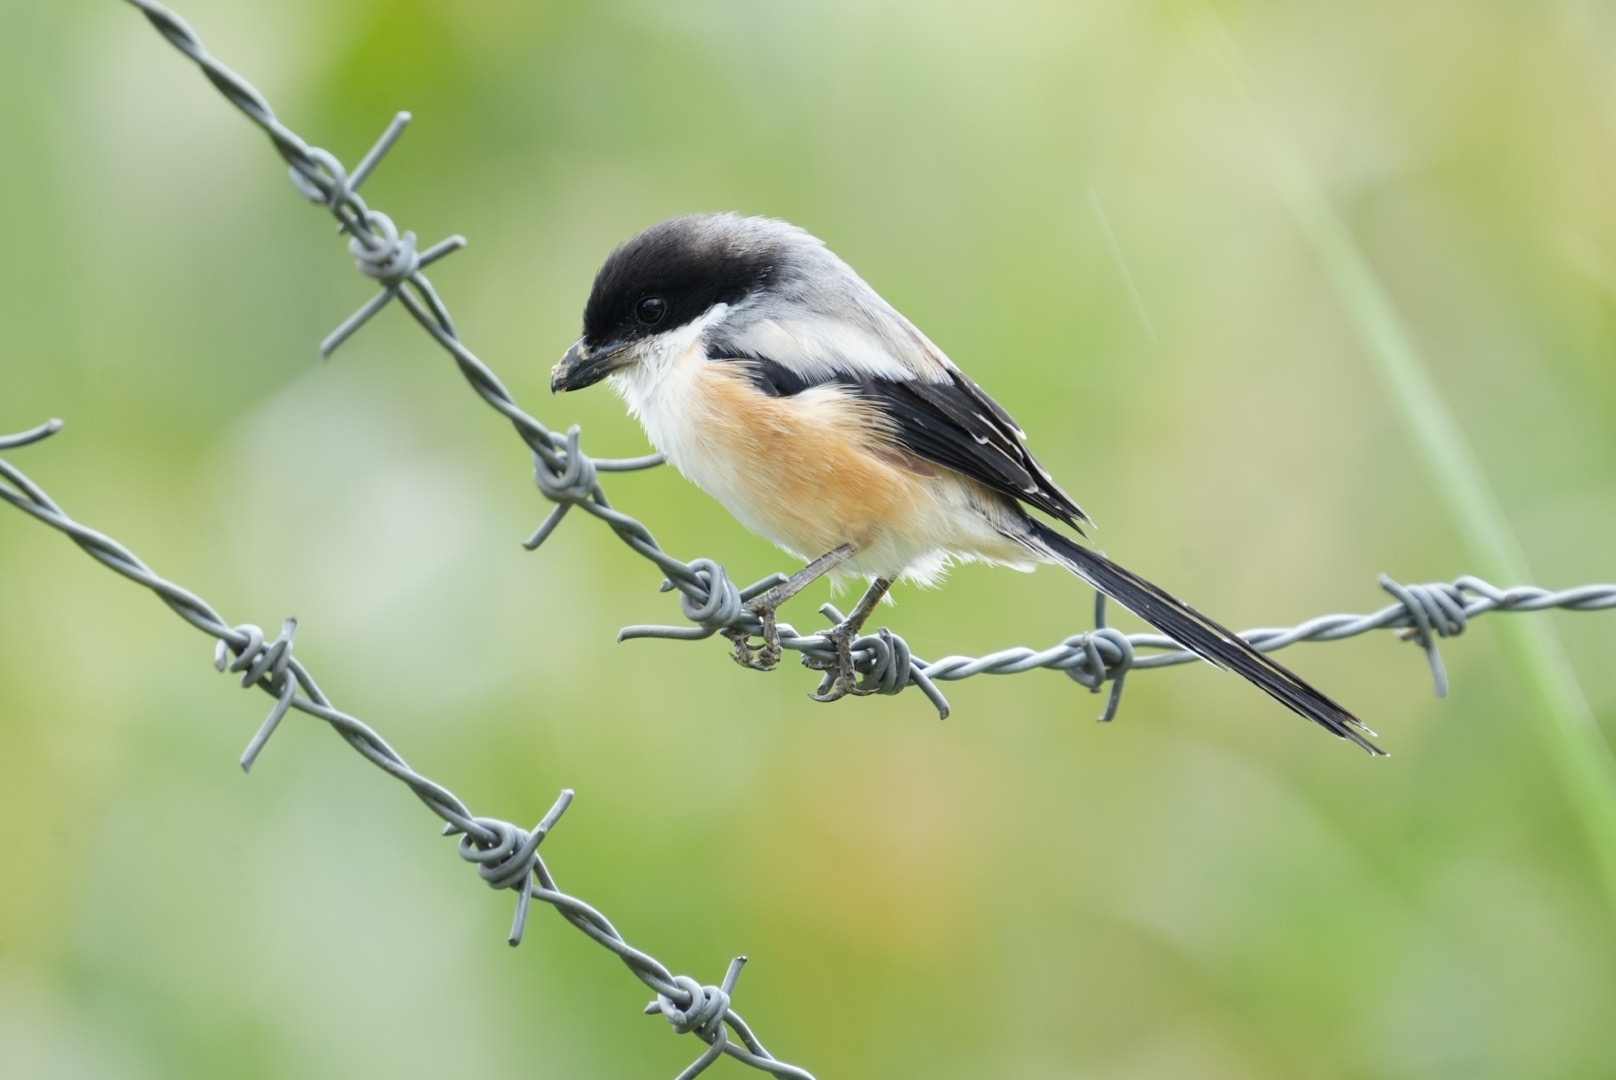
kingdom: Animalia
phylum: Chordata
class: Aves
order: Passeriformes
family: Laniidae
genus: Lanius
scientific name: Lanius schach
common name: Long-tailed shrike
